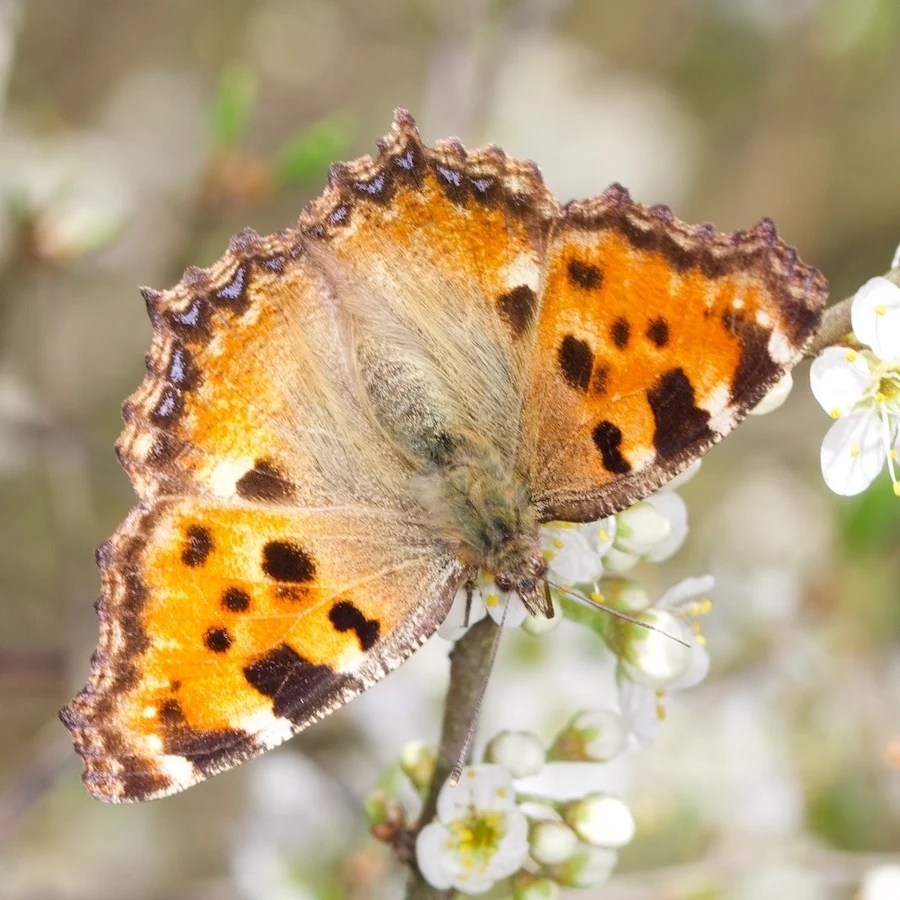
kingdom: Animalia
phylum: Arthropoda
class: Insecta
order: Lepidoptera
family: Nymphalidae
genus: Nymphalis
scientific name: Nymphalis polychloros
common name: Large tortoiseshell
